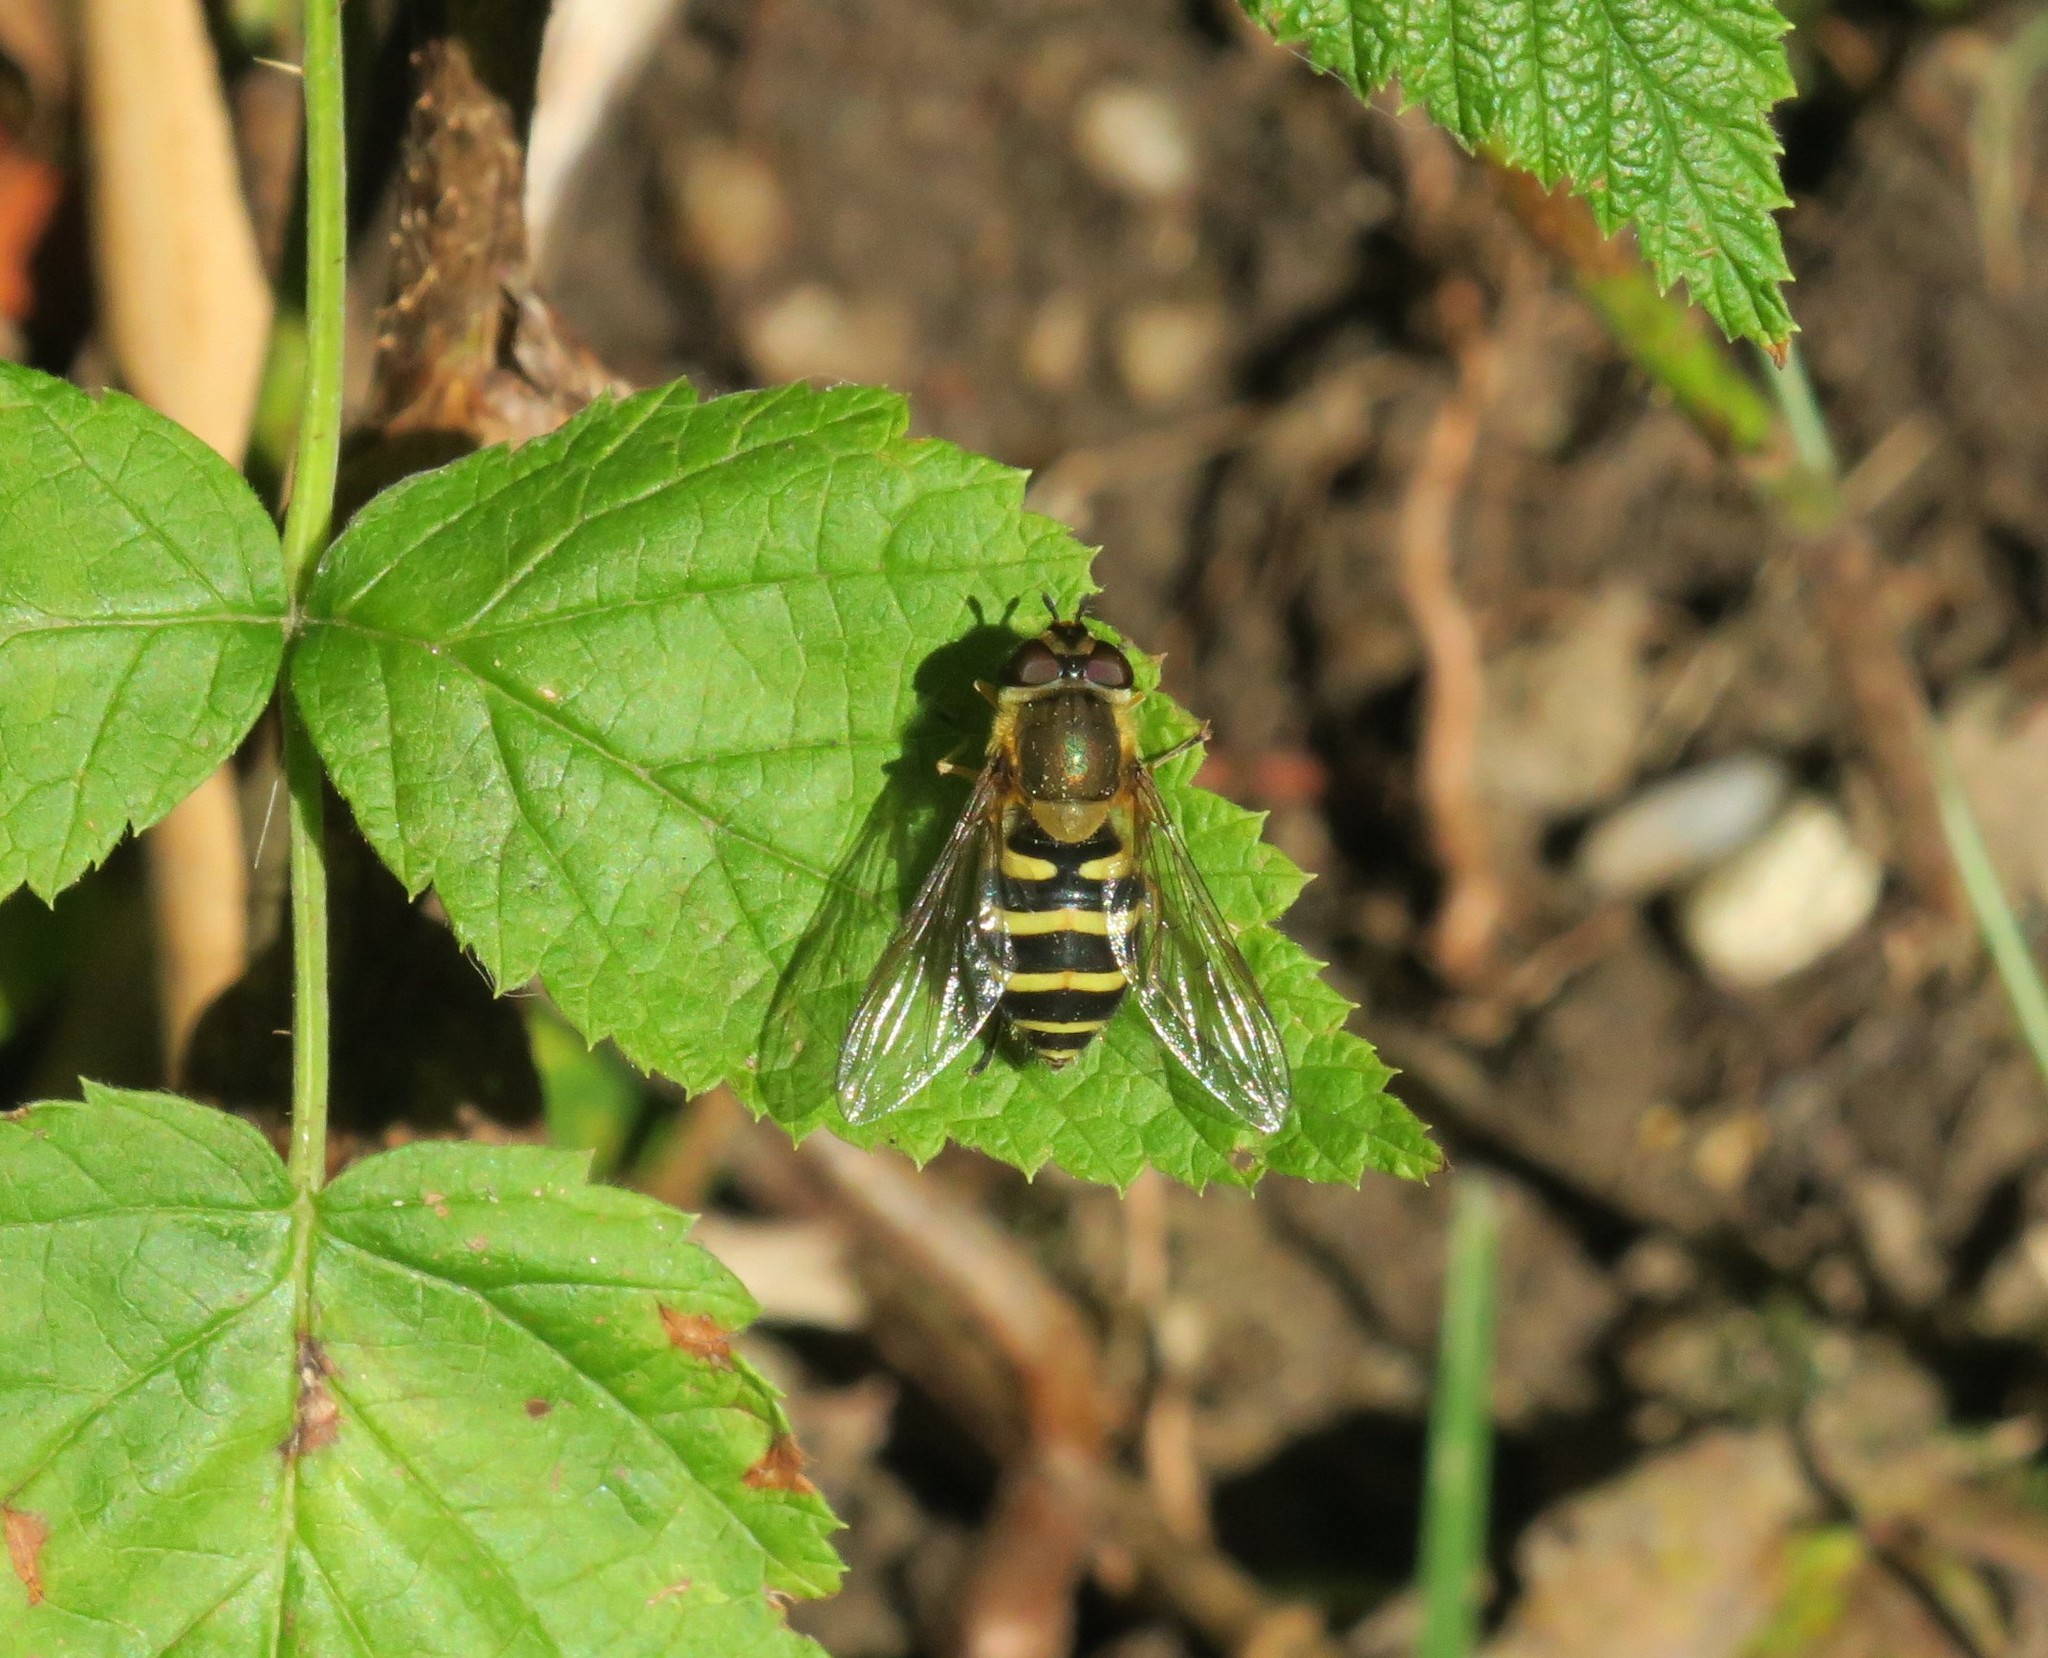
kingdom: Animalia
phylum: Arthropoda
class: Insecta
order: Diptera
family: Syrphidae
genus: Syrphus
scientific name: Syrphus
